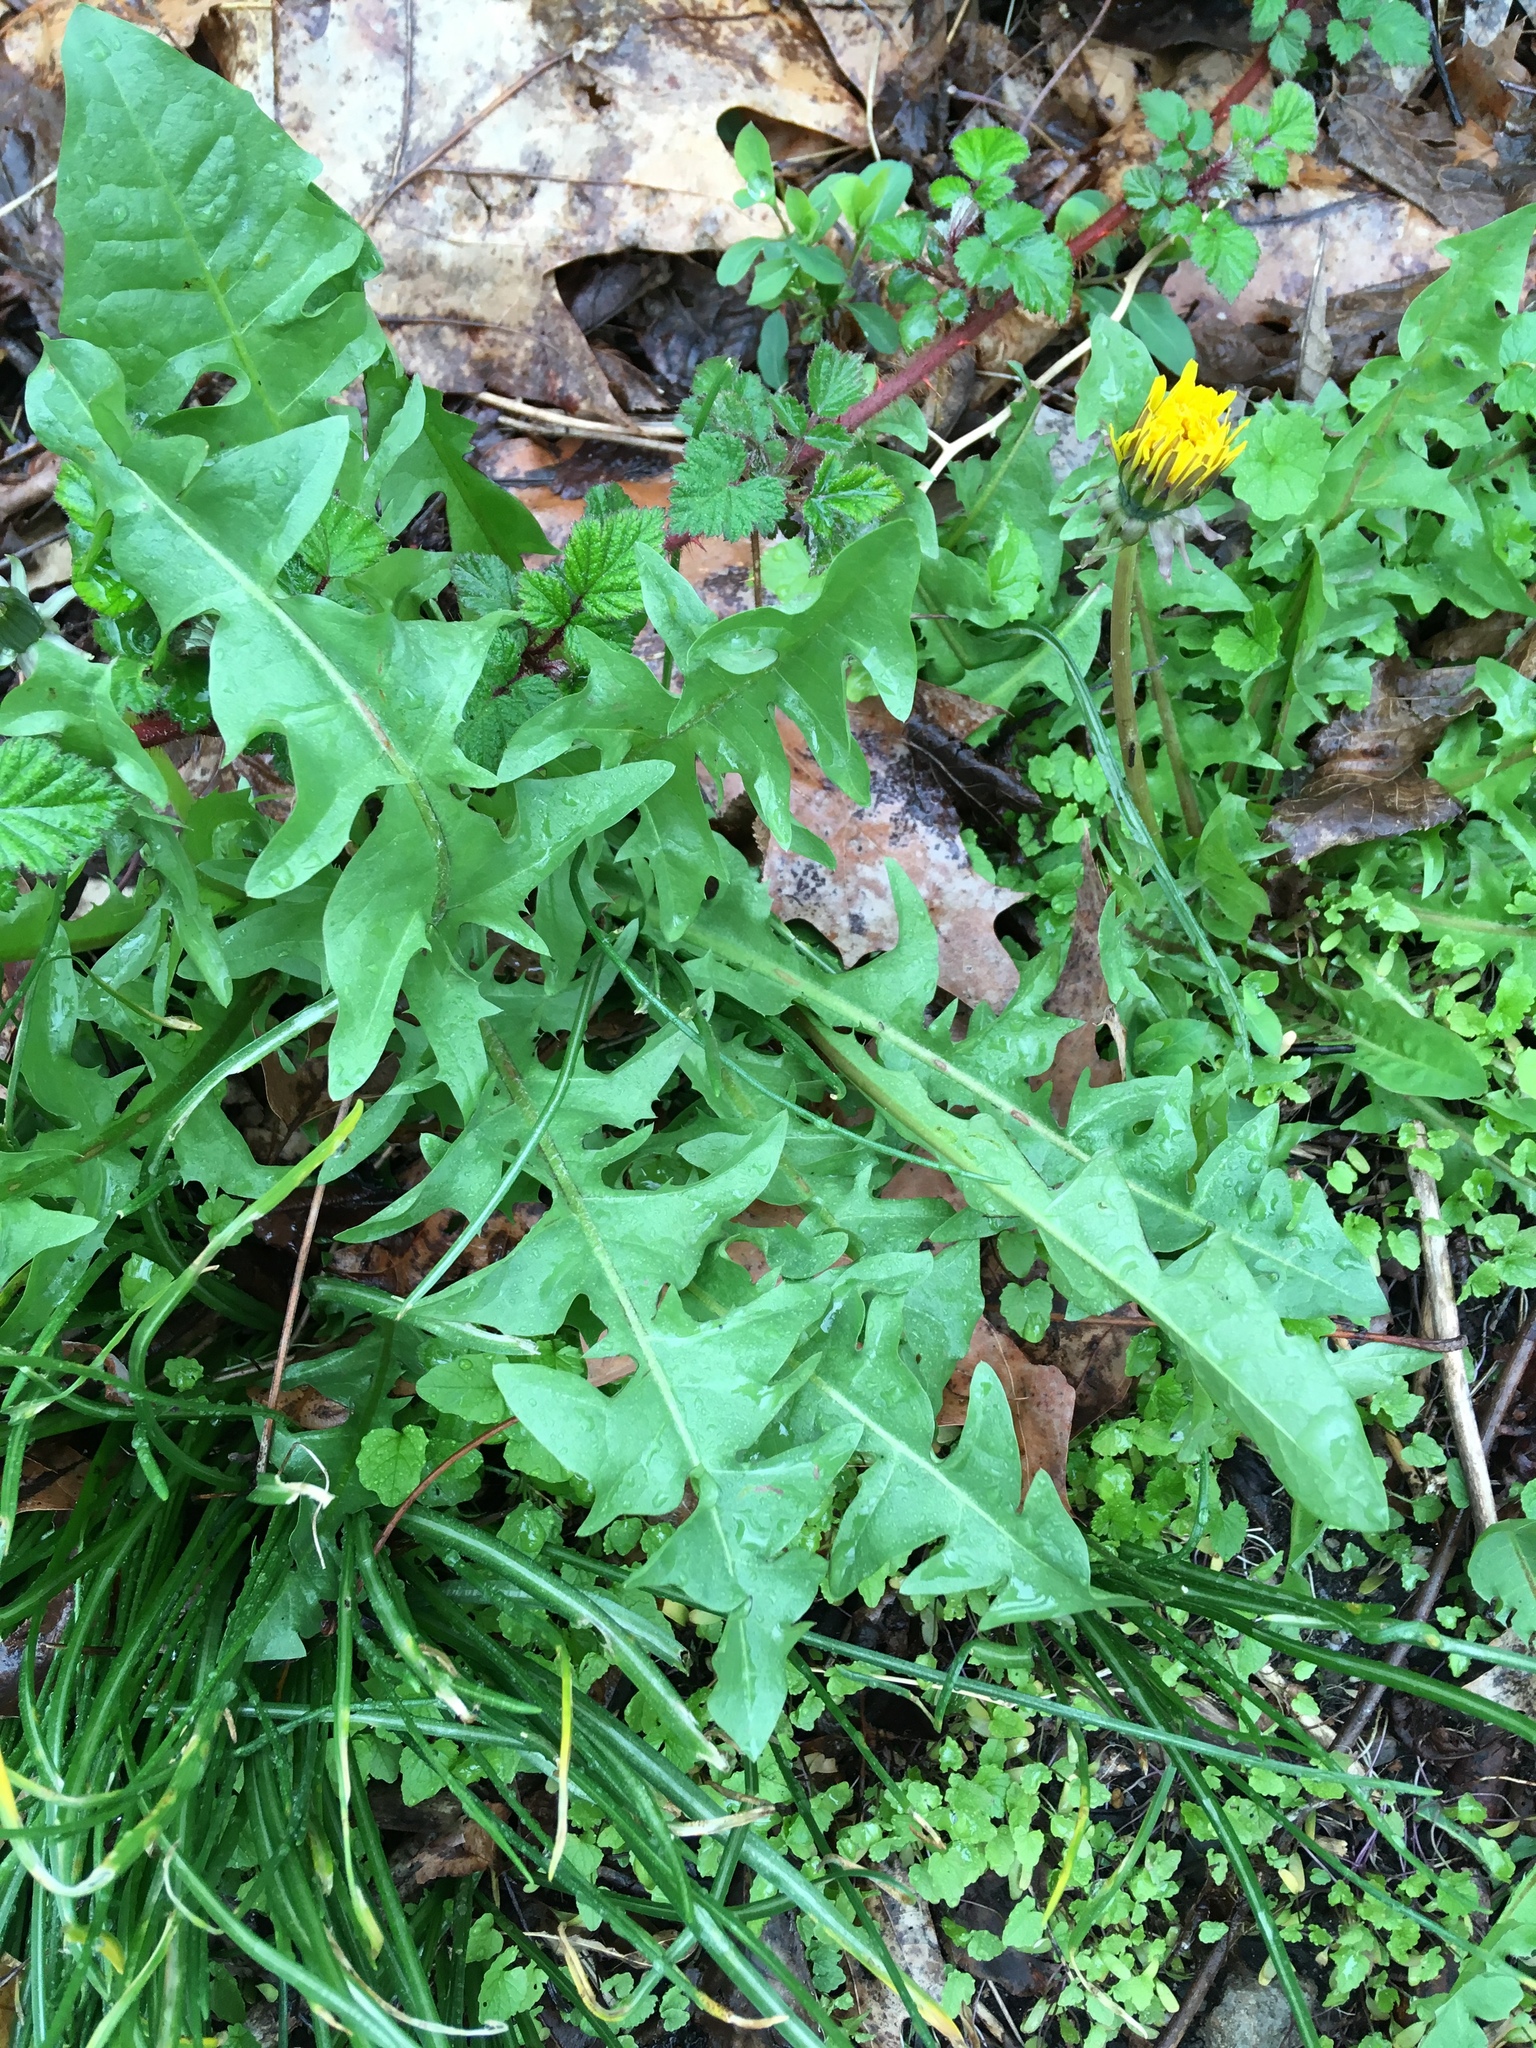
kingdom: Plantae
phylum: Tracheophyta
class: Magnoliopsida
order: Asterales
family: Asteraceae
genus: Taraxacum
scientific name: Taraxacum officinale
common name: Common dandelion
